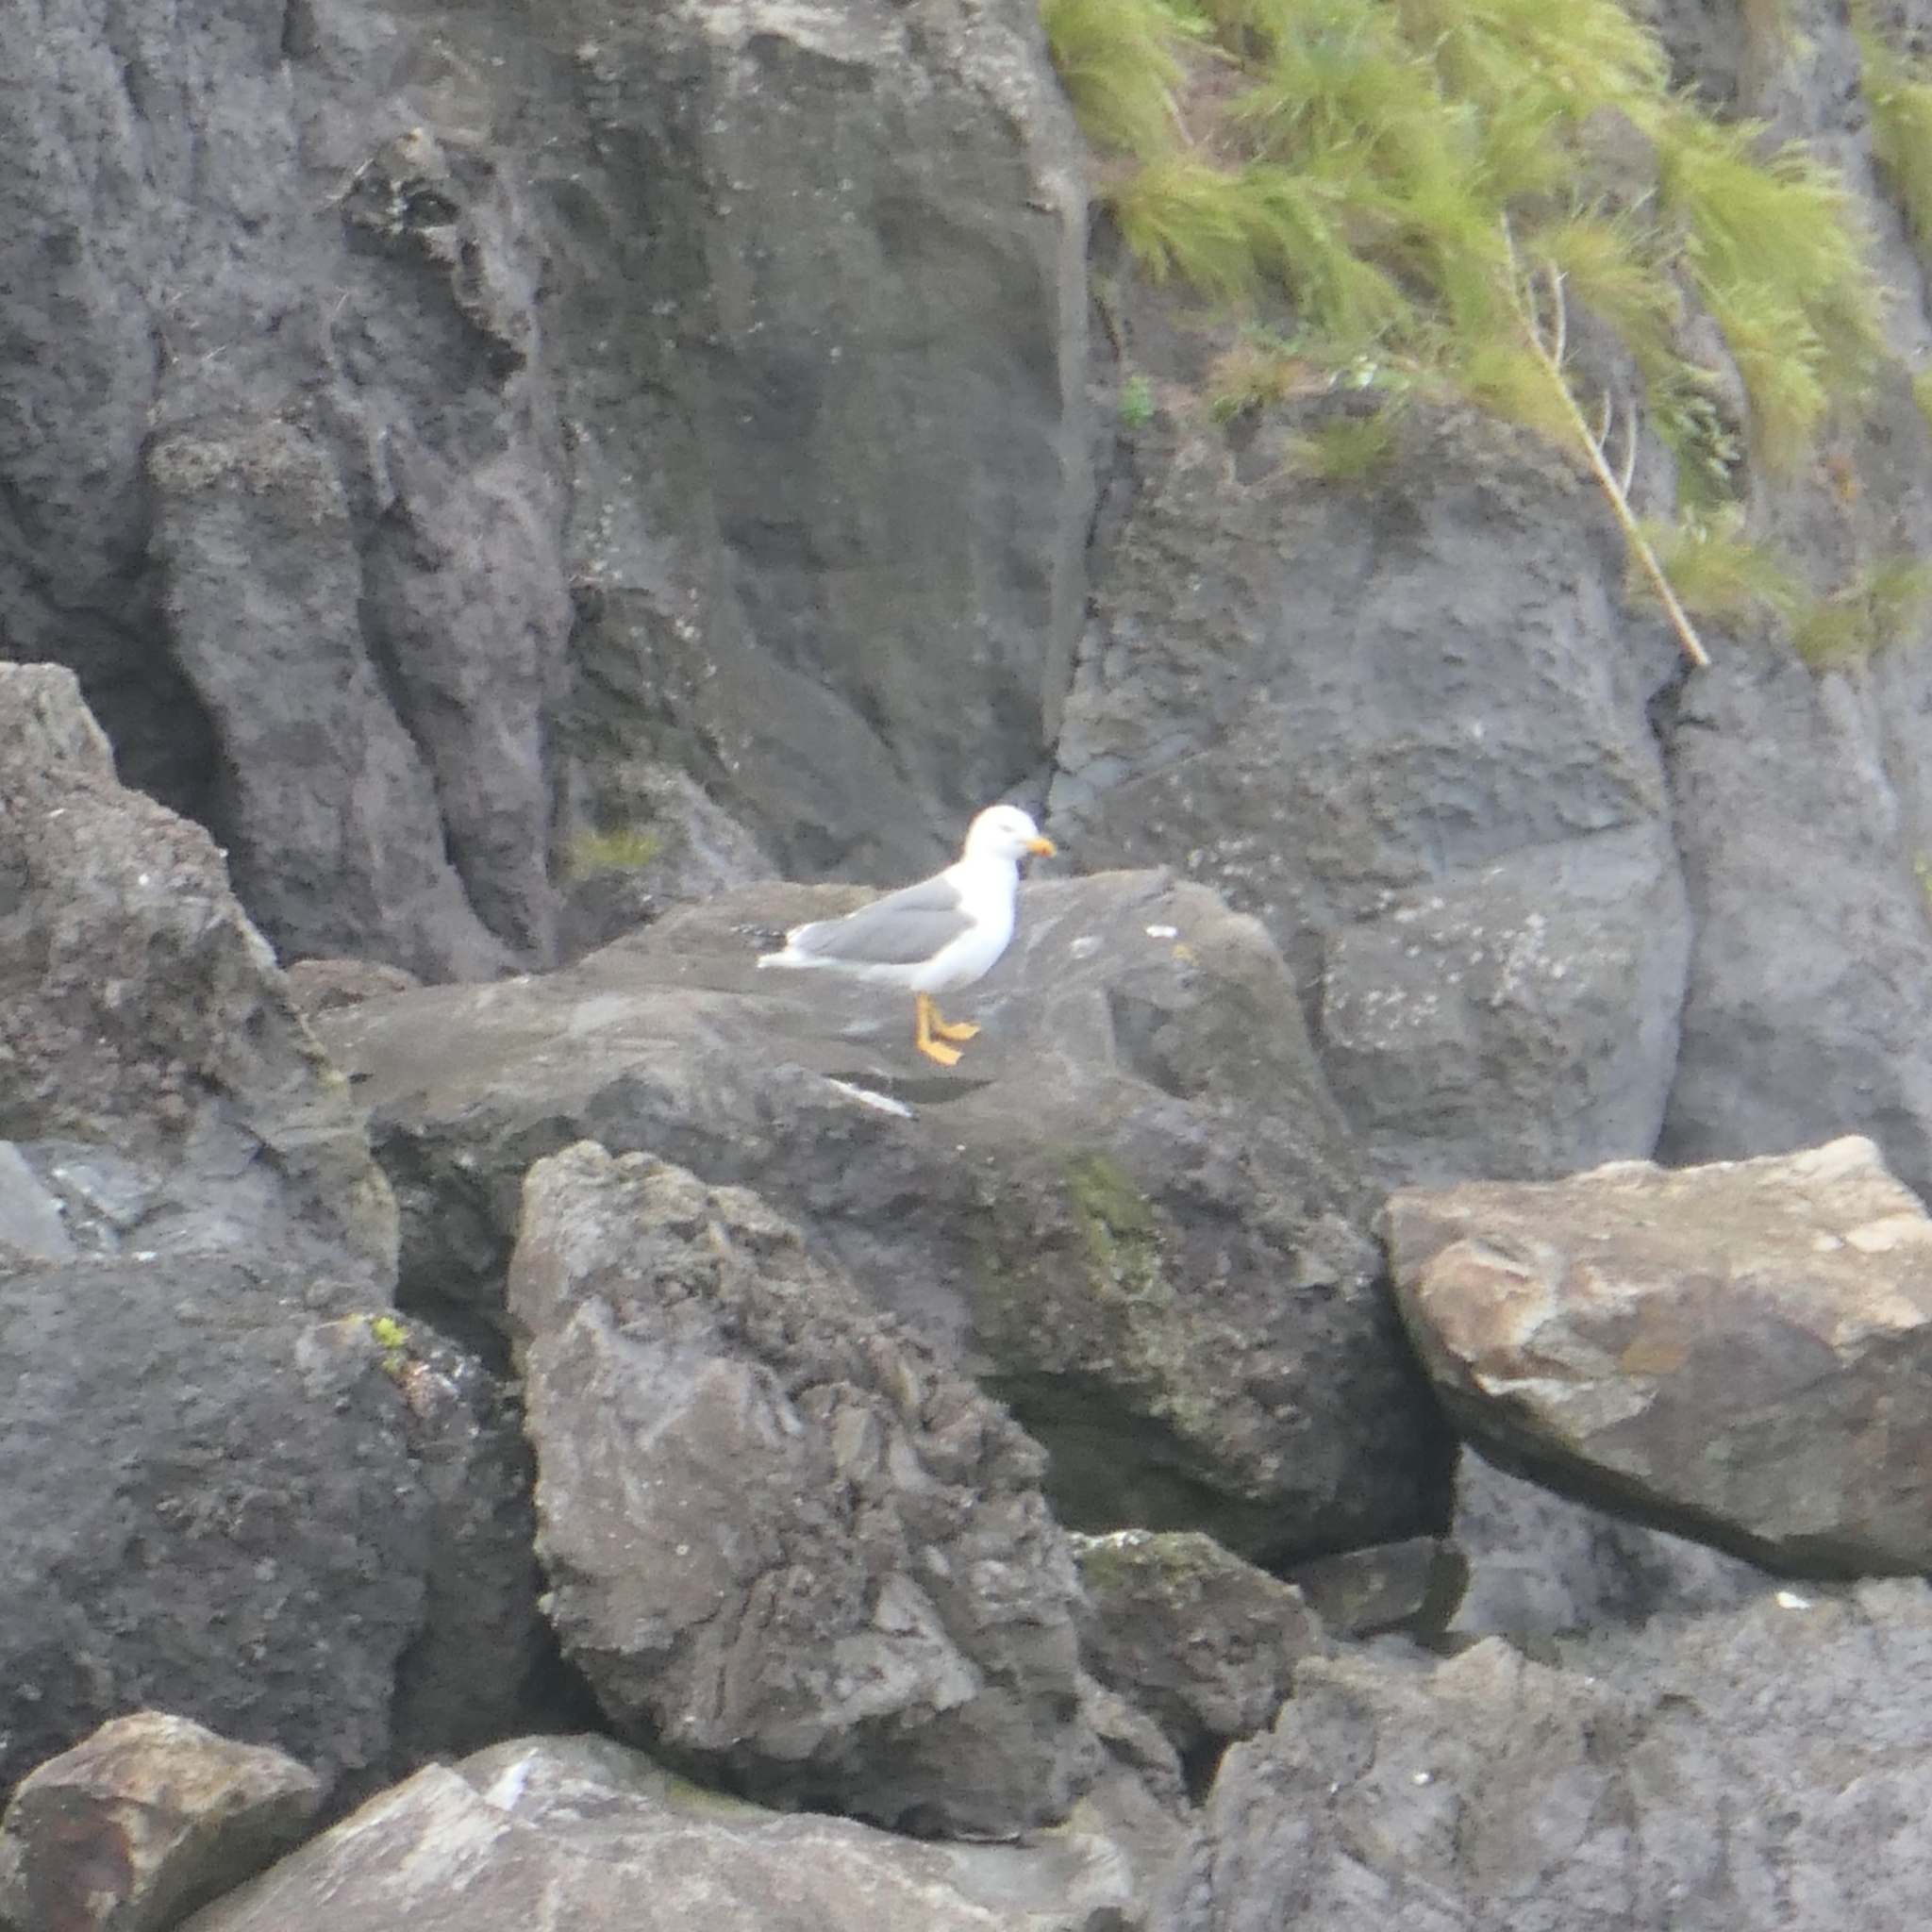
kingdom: Animalia
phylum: Chordata
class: Aves
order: Charadriiformes
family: Laridae
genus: Larus
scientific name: Larus michahellis
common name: Yellow-legged gull
